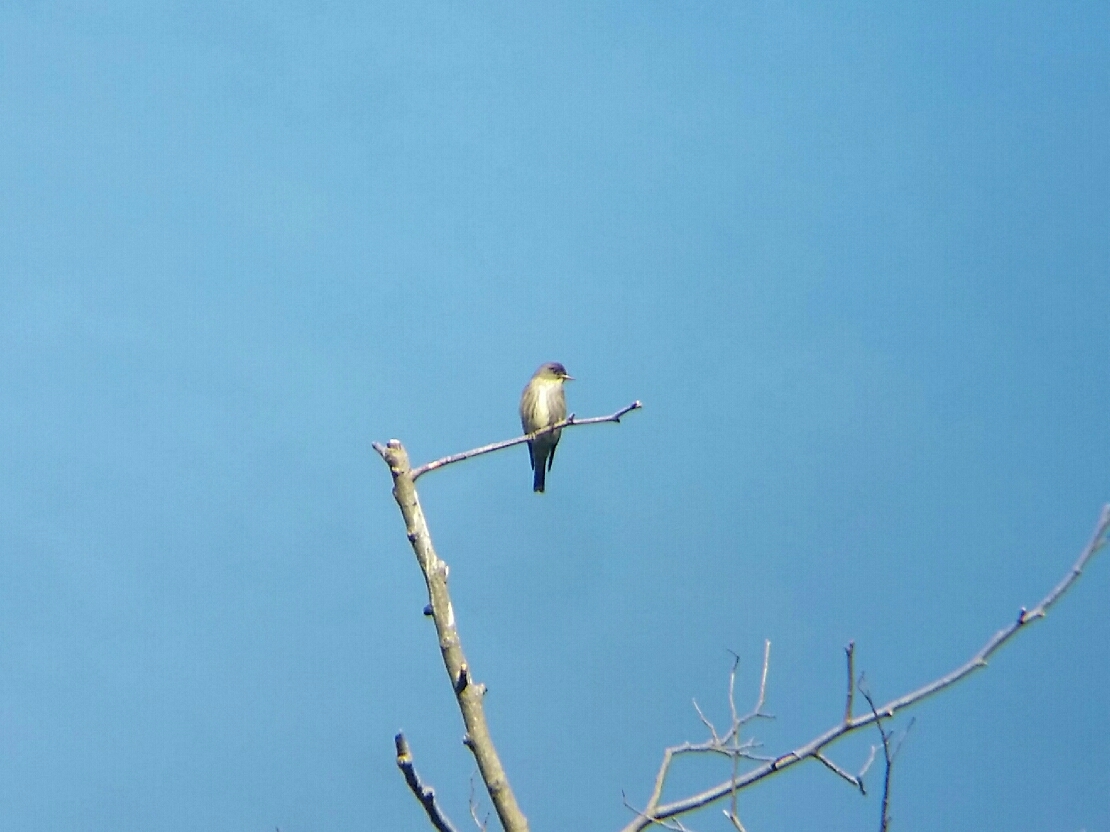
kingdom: Animalia
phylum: Chordata
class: Aves
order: Passeriformes
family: Tyrannidae
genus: Contopus
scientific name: Contopus cooperi
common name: Olive-sided flycatcher
